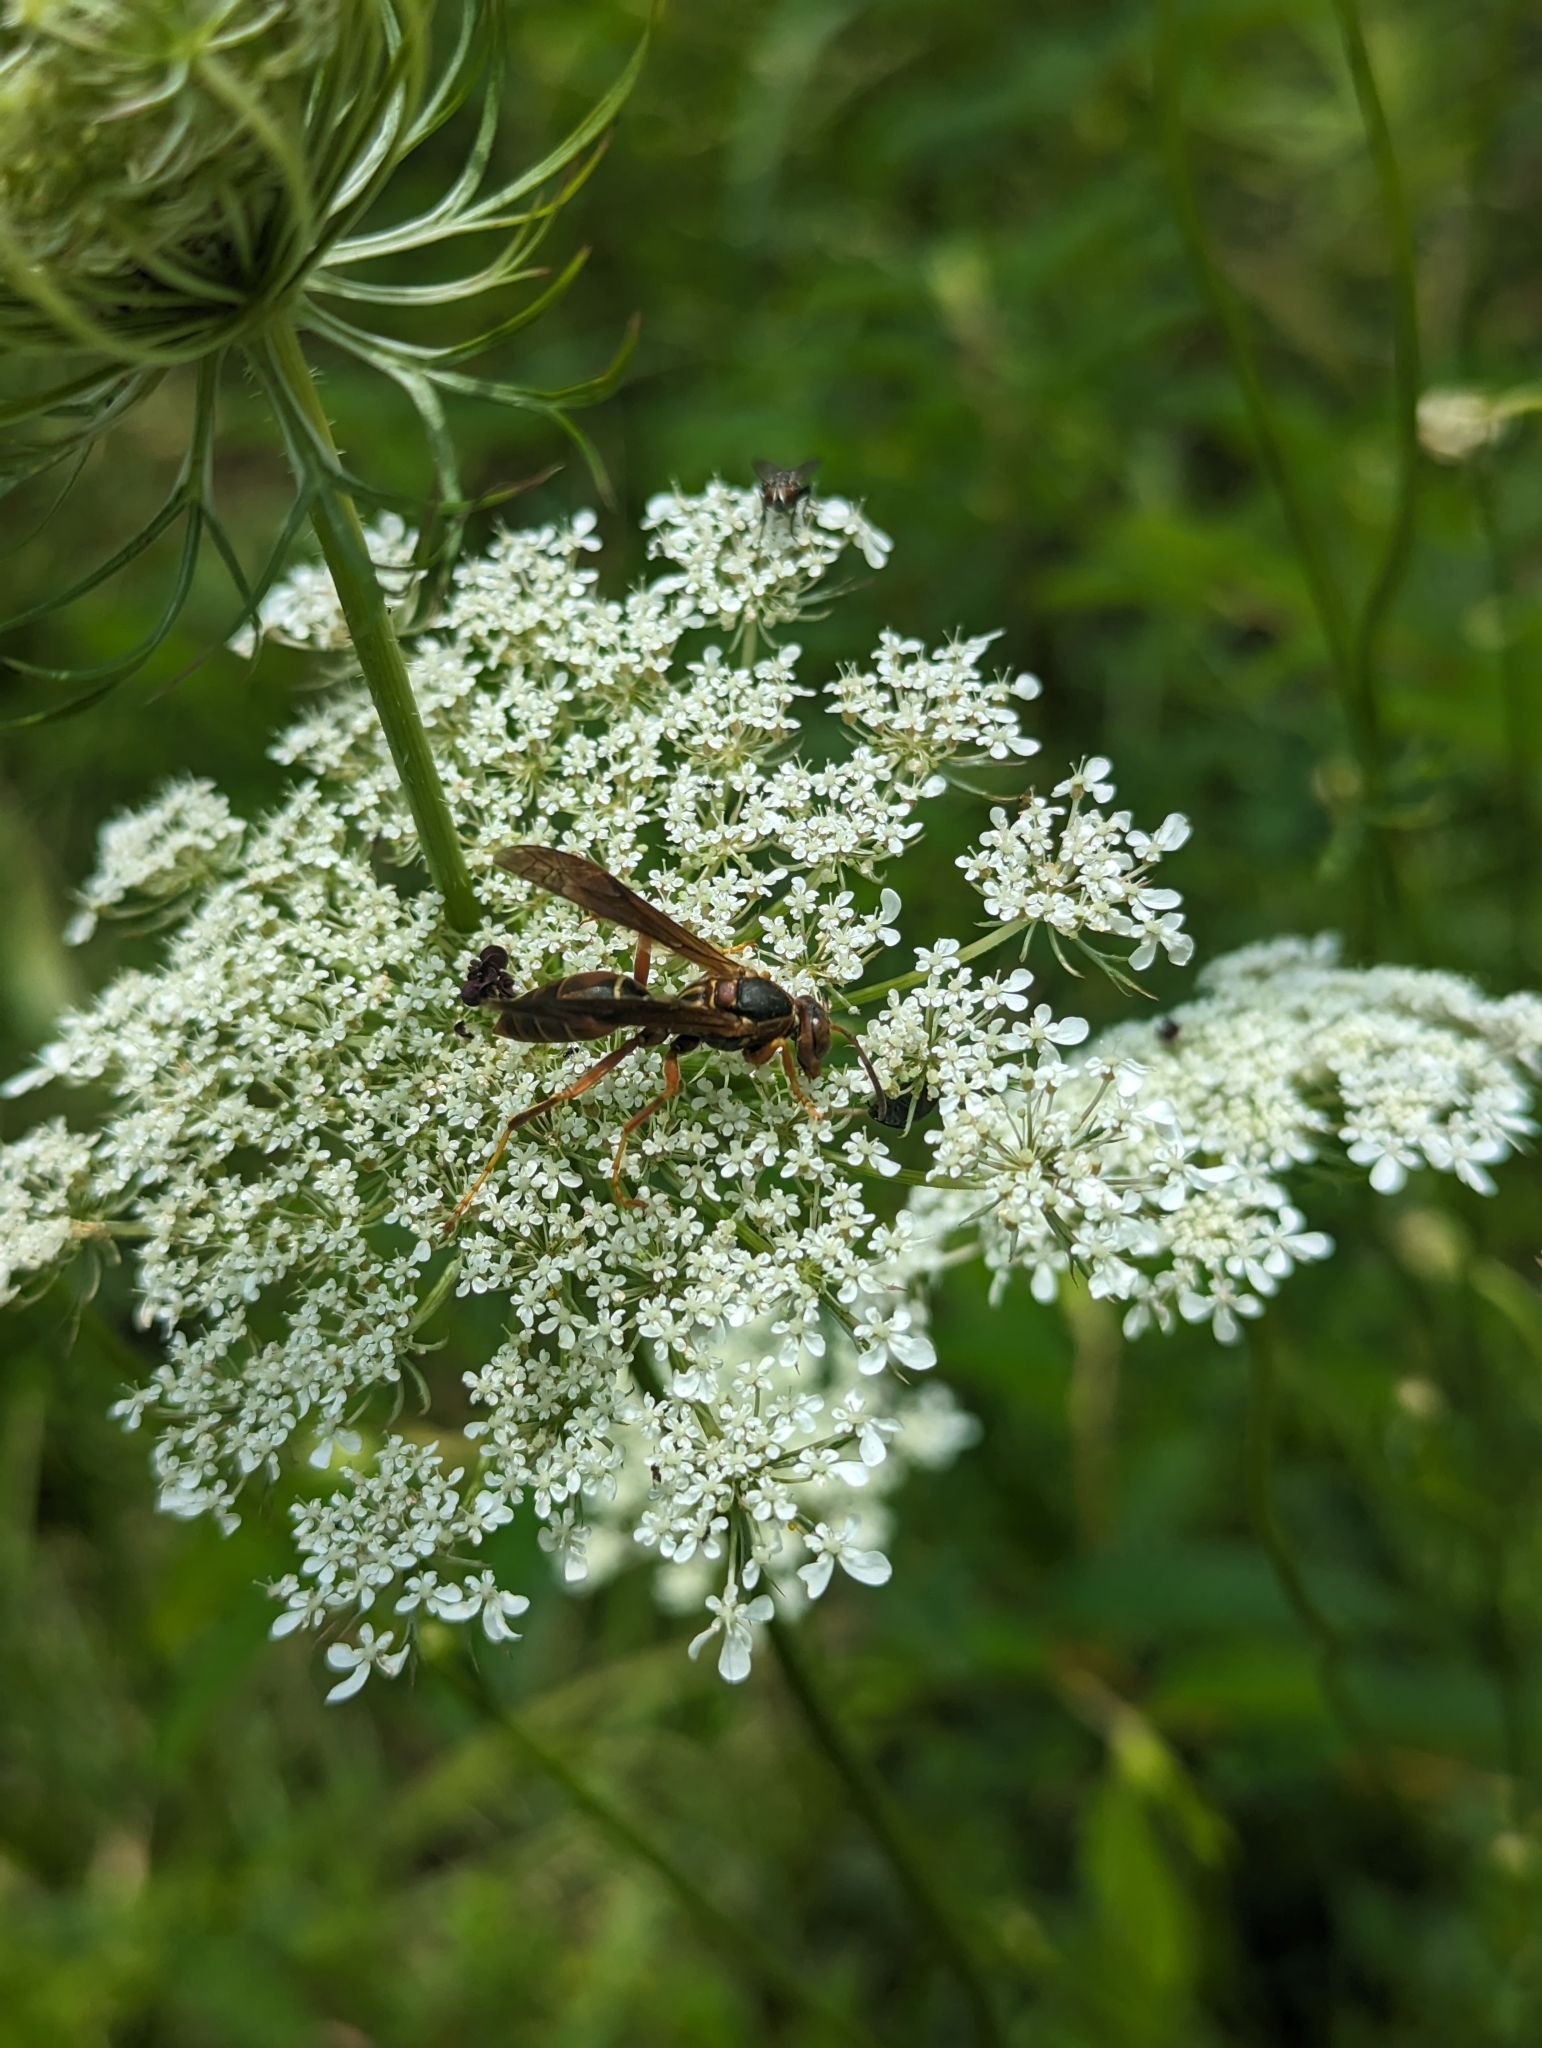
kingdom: Animalia
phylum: Arthropoda
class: Insecta
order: Hymenoptera
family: Eumenidae
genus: Polistes
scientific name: Polistes fuscatus
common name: Dark paper wasp
